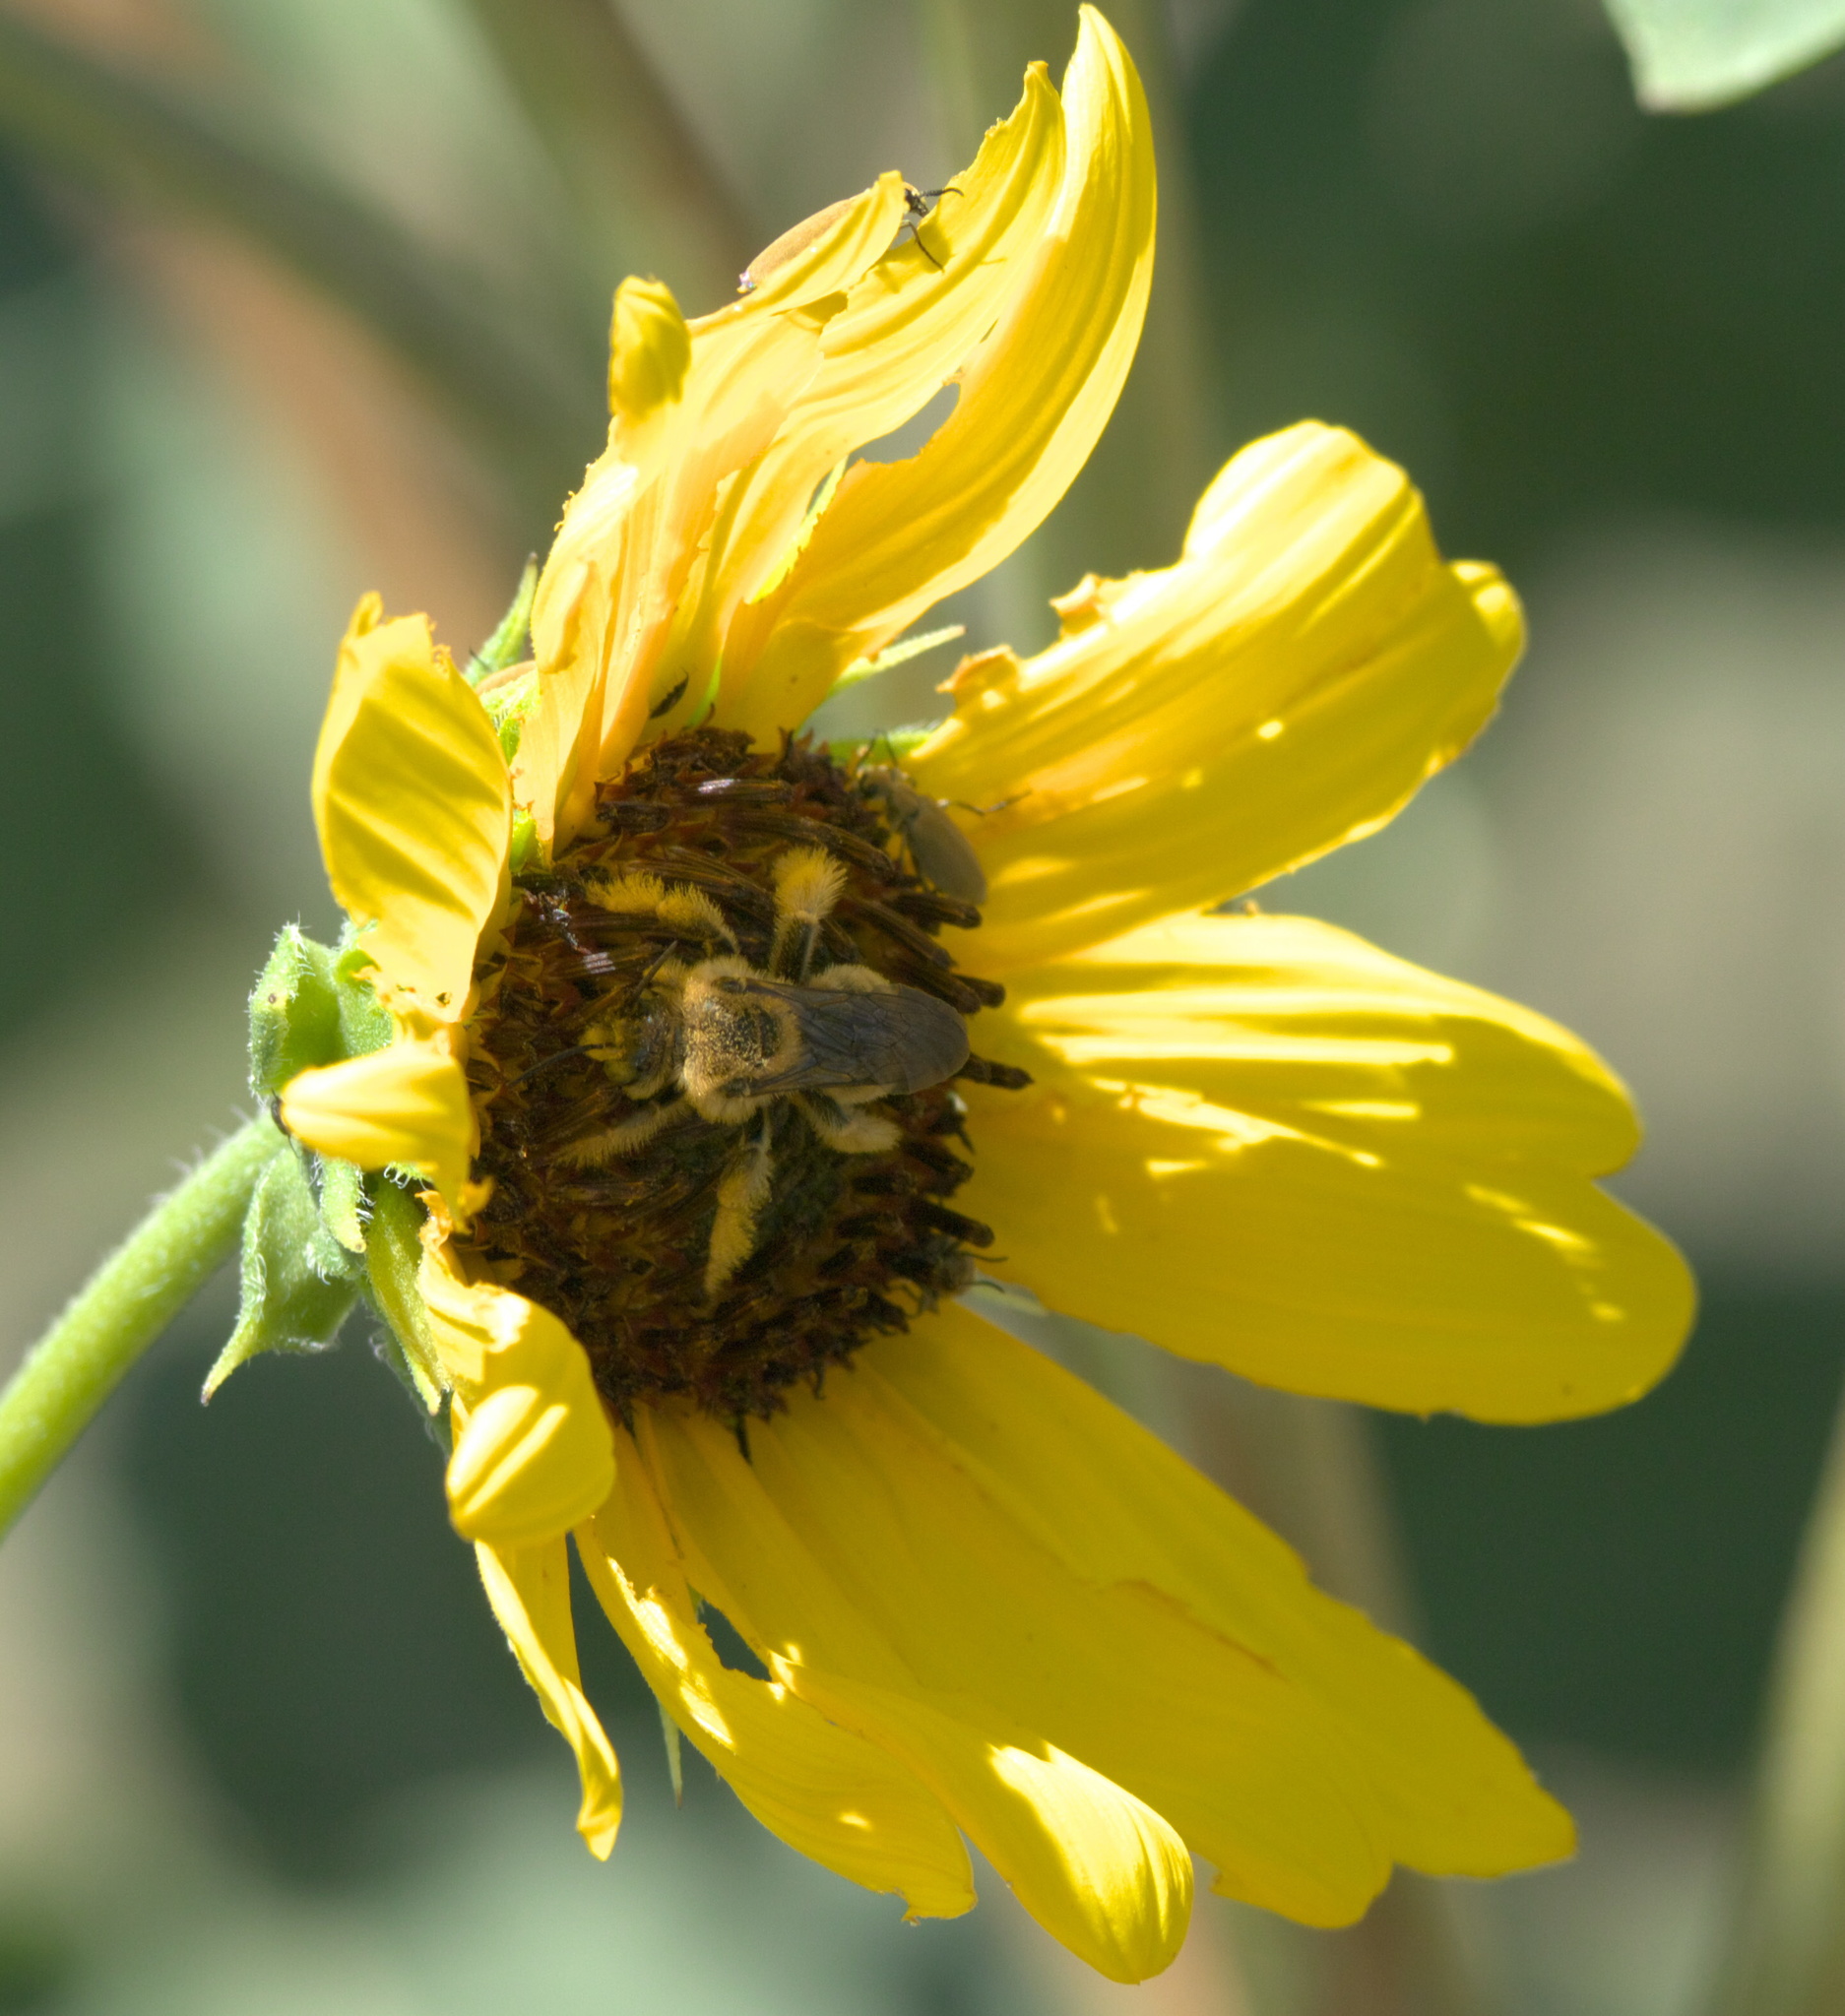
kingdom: Animalia
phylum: Arthropoda
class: Insecta
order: Hymenoptera
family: Apidae
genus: Diadasia
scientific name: Diadasia enavata
